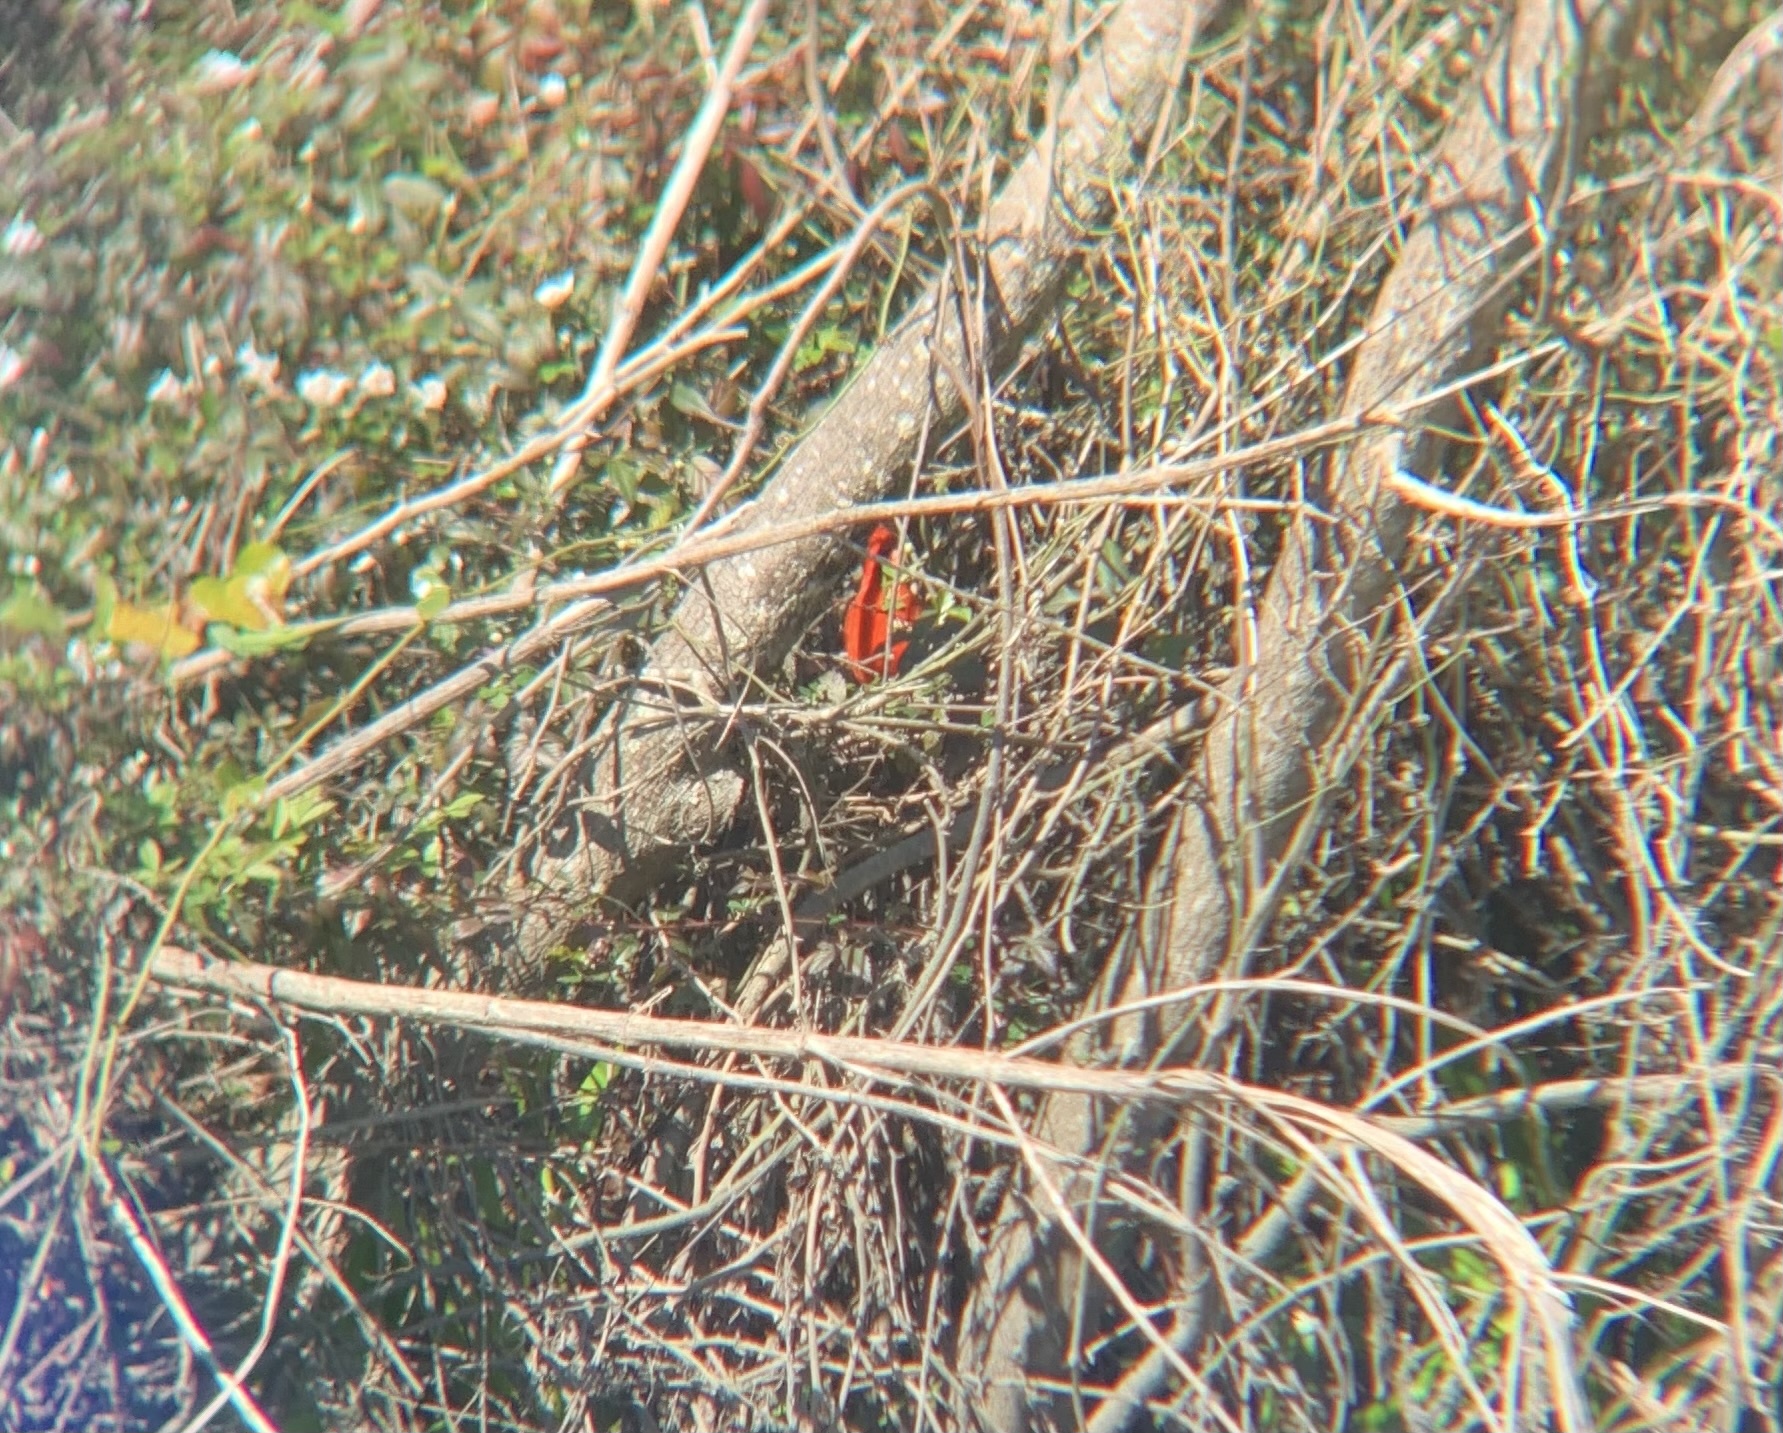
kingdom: Animalia
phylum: Chordata
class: Aves
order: Passeriformes
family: Cardinalidae
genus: Cardinalis
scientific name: Cardinalis cardinalis
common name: Northern cardinal
